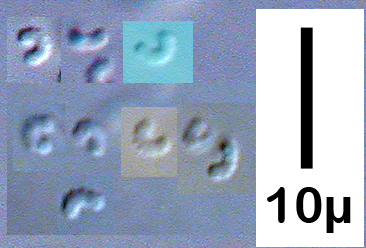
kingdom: Fungi
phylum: Ascomycota
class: Orbiliomycetes
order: Orbiliales
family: Orbiliaceae
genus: Orbilia
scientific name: Orbilia xanthostigma
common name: Common glasscup
